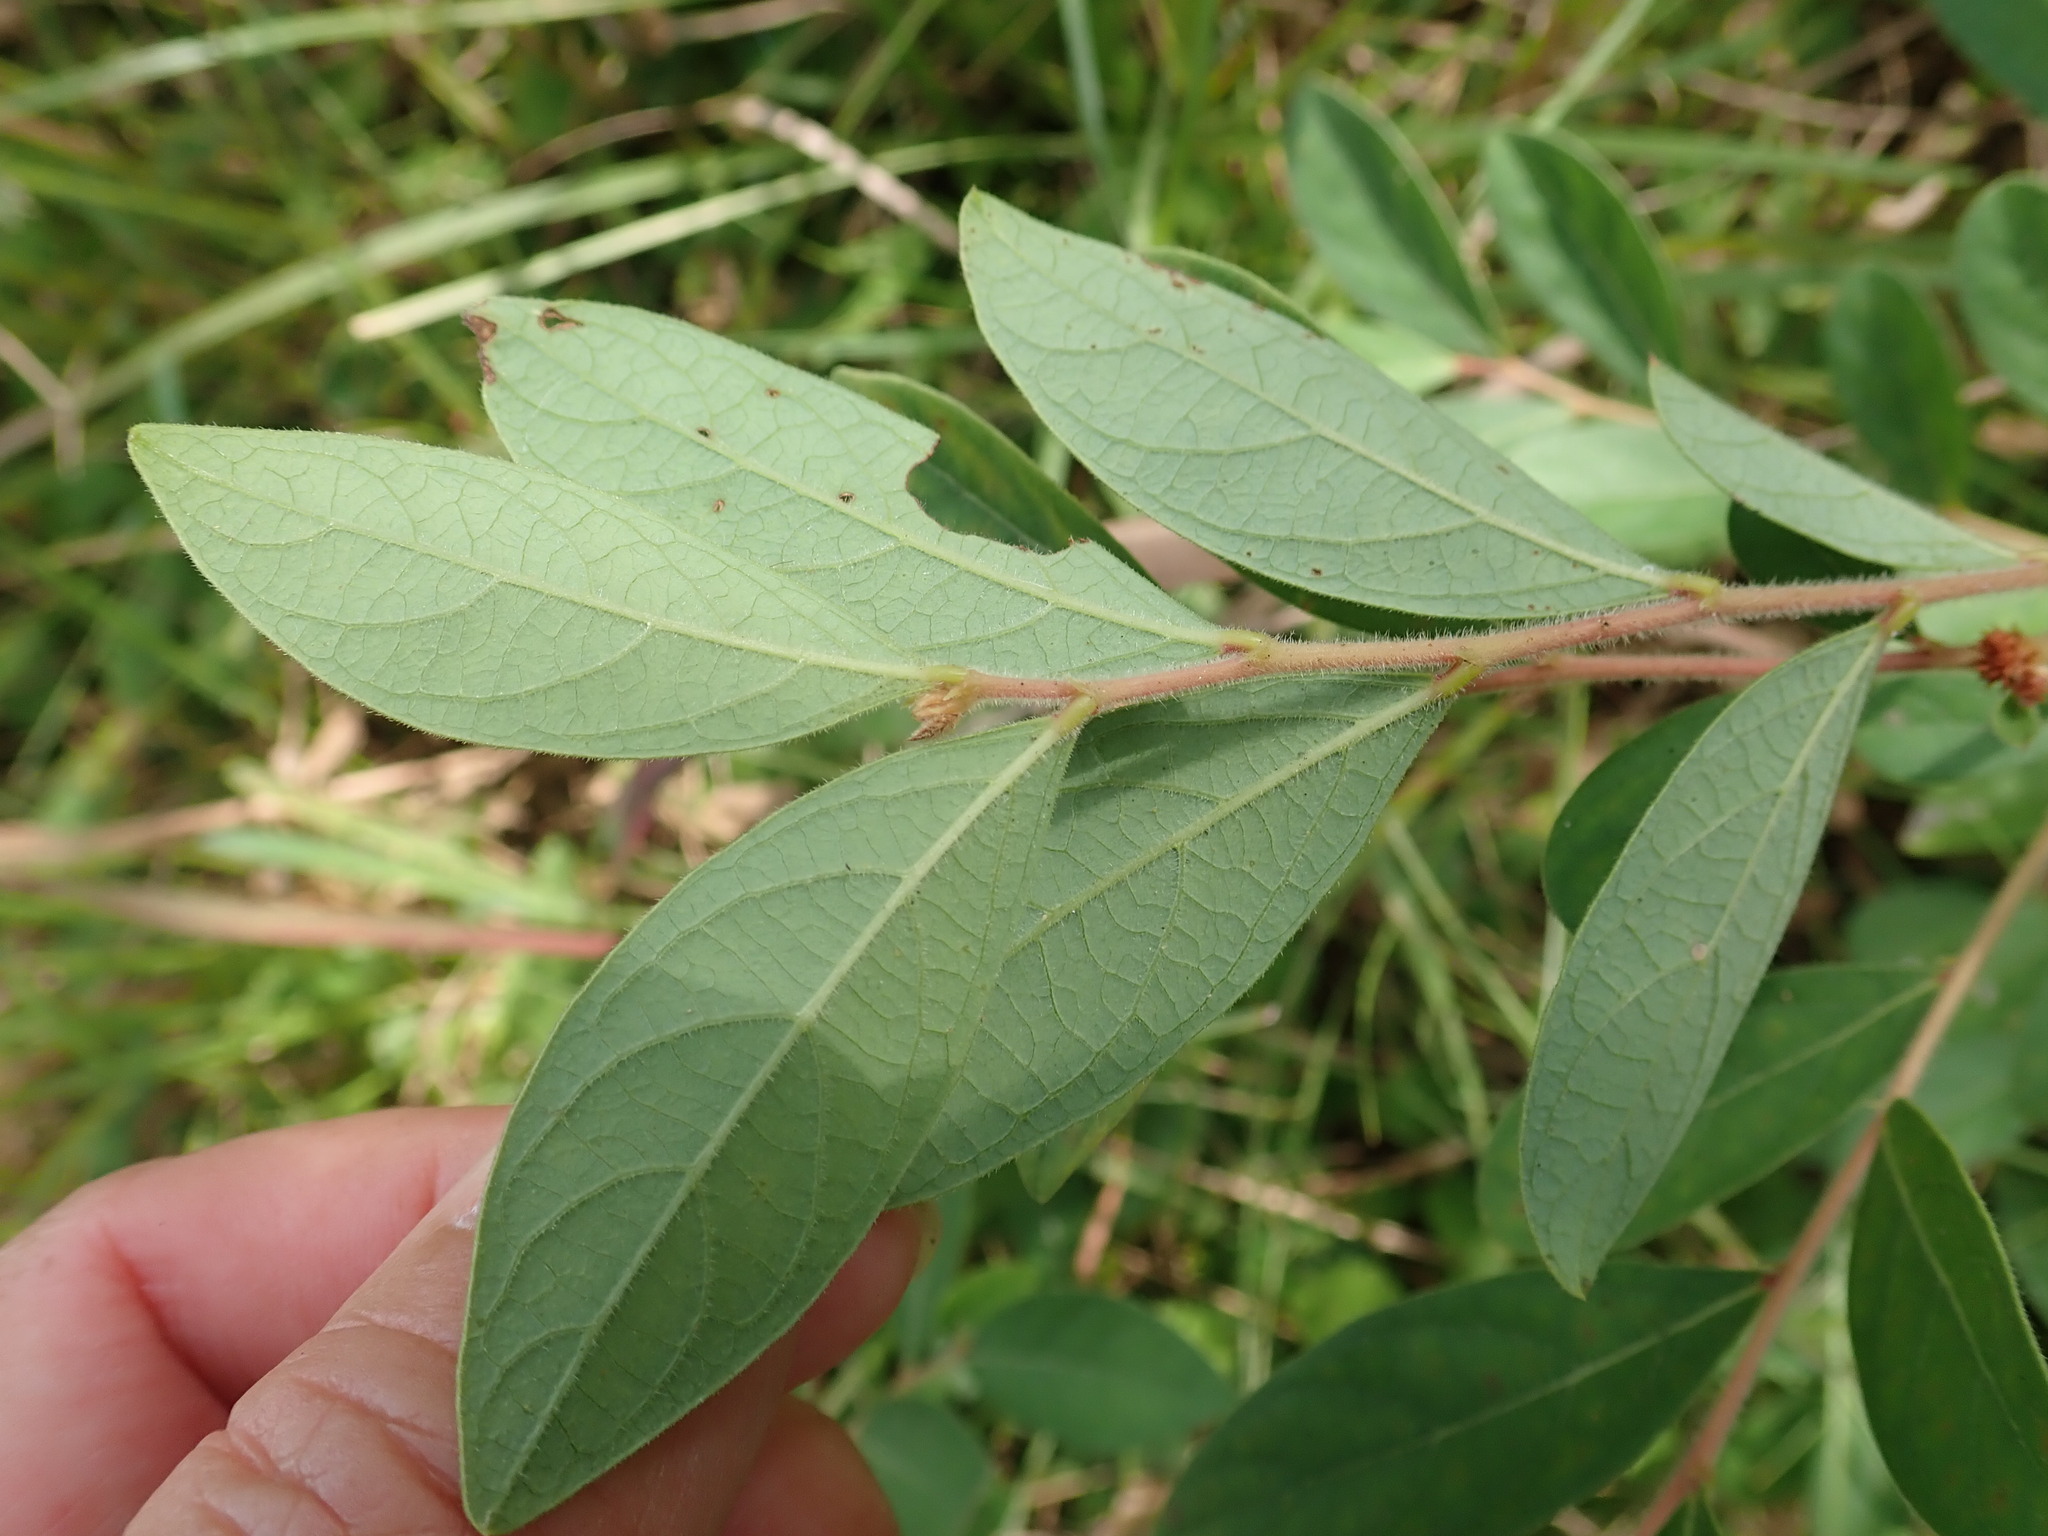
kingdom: Plantae
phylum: Tracheophyta
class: Magnoliopsida
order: Malpighiales
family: Phyllanthaceae
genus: Glochidion
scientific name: Glochidion puberum
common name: Needlebush
